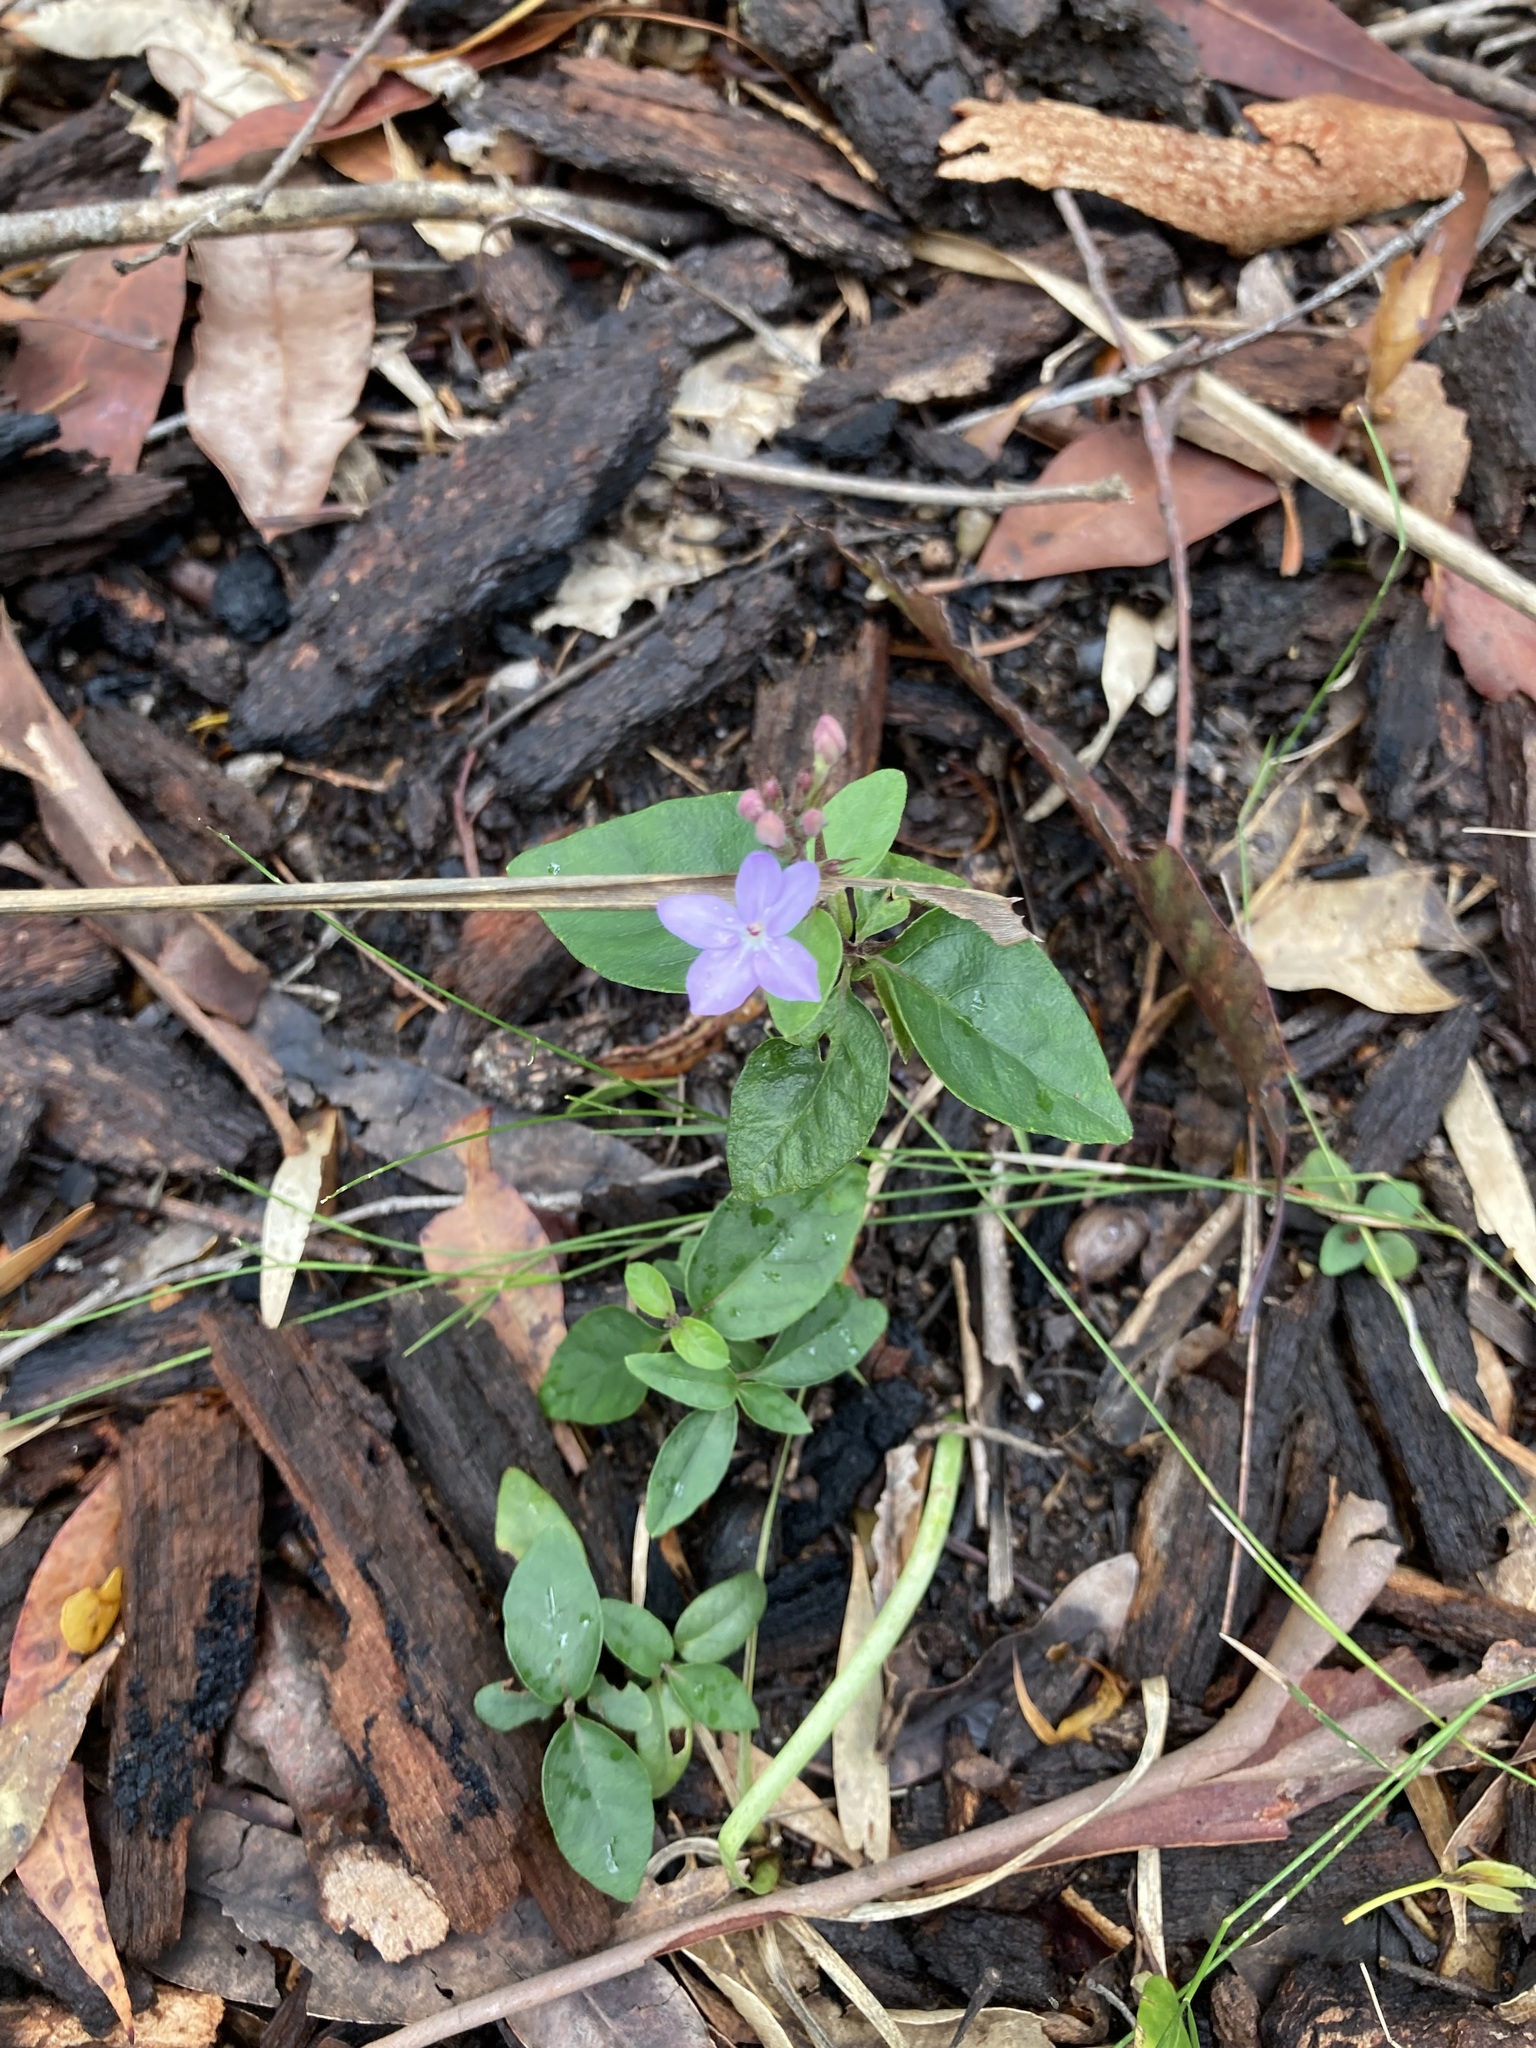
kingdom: Plantae
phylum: Tracheophyta
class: Magnoliopsida
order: Lamiales
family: Acanthaceae
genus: Pseuderanthemum
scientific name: Pseuderanthemum variabile
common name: Night and afternoon
